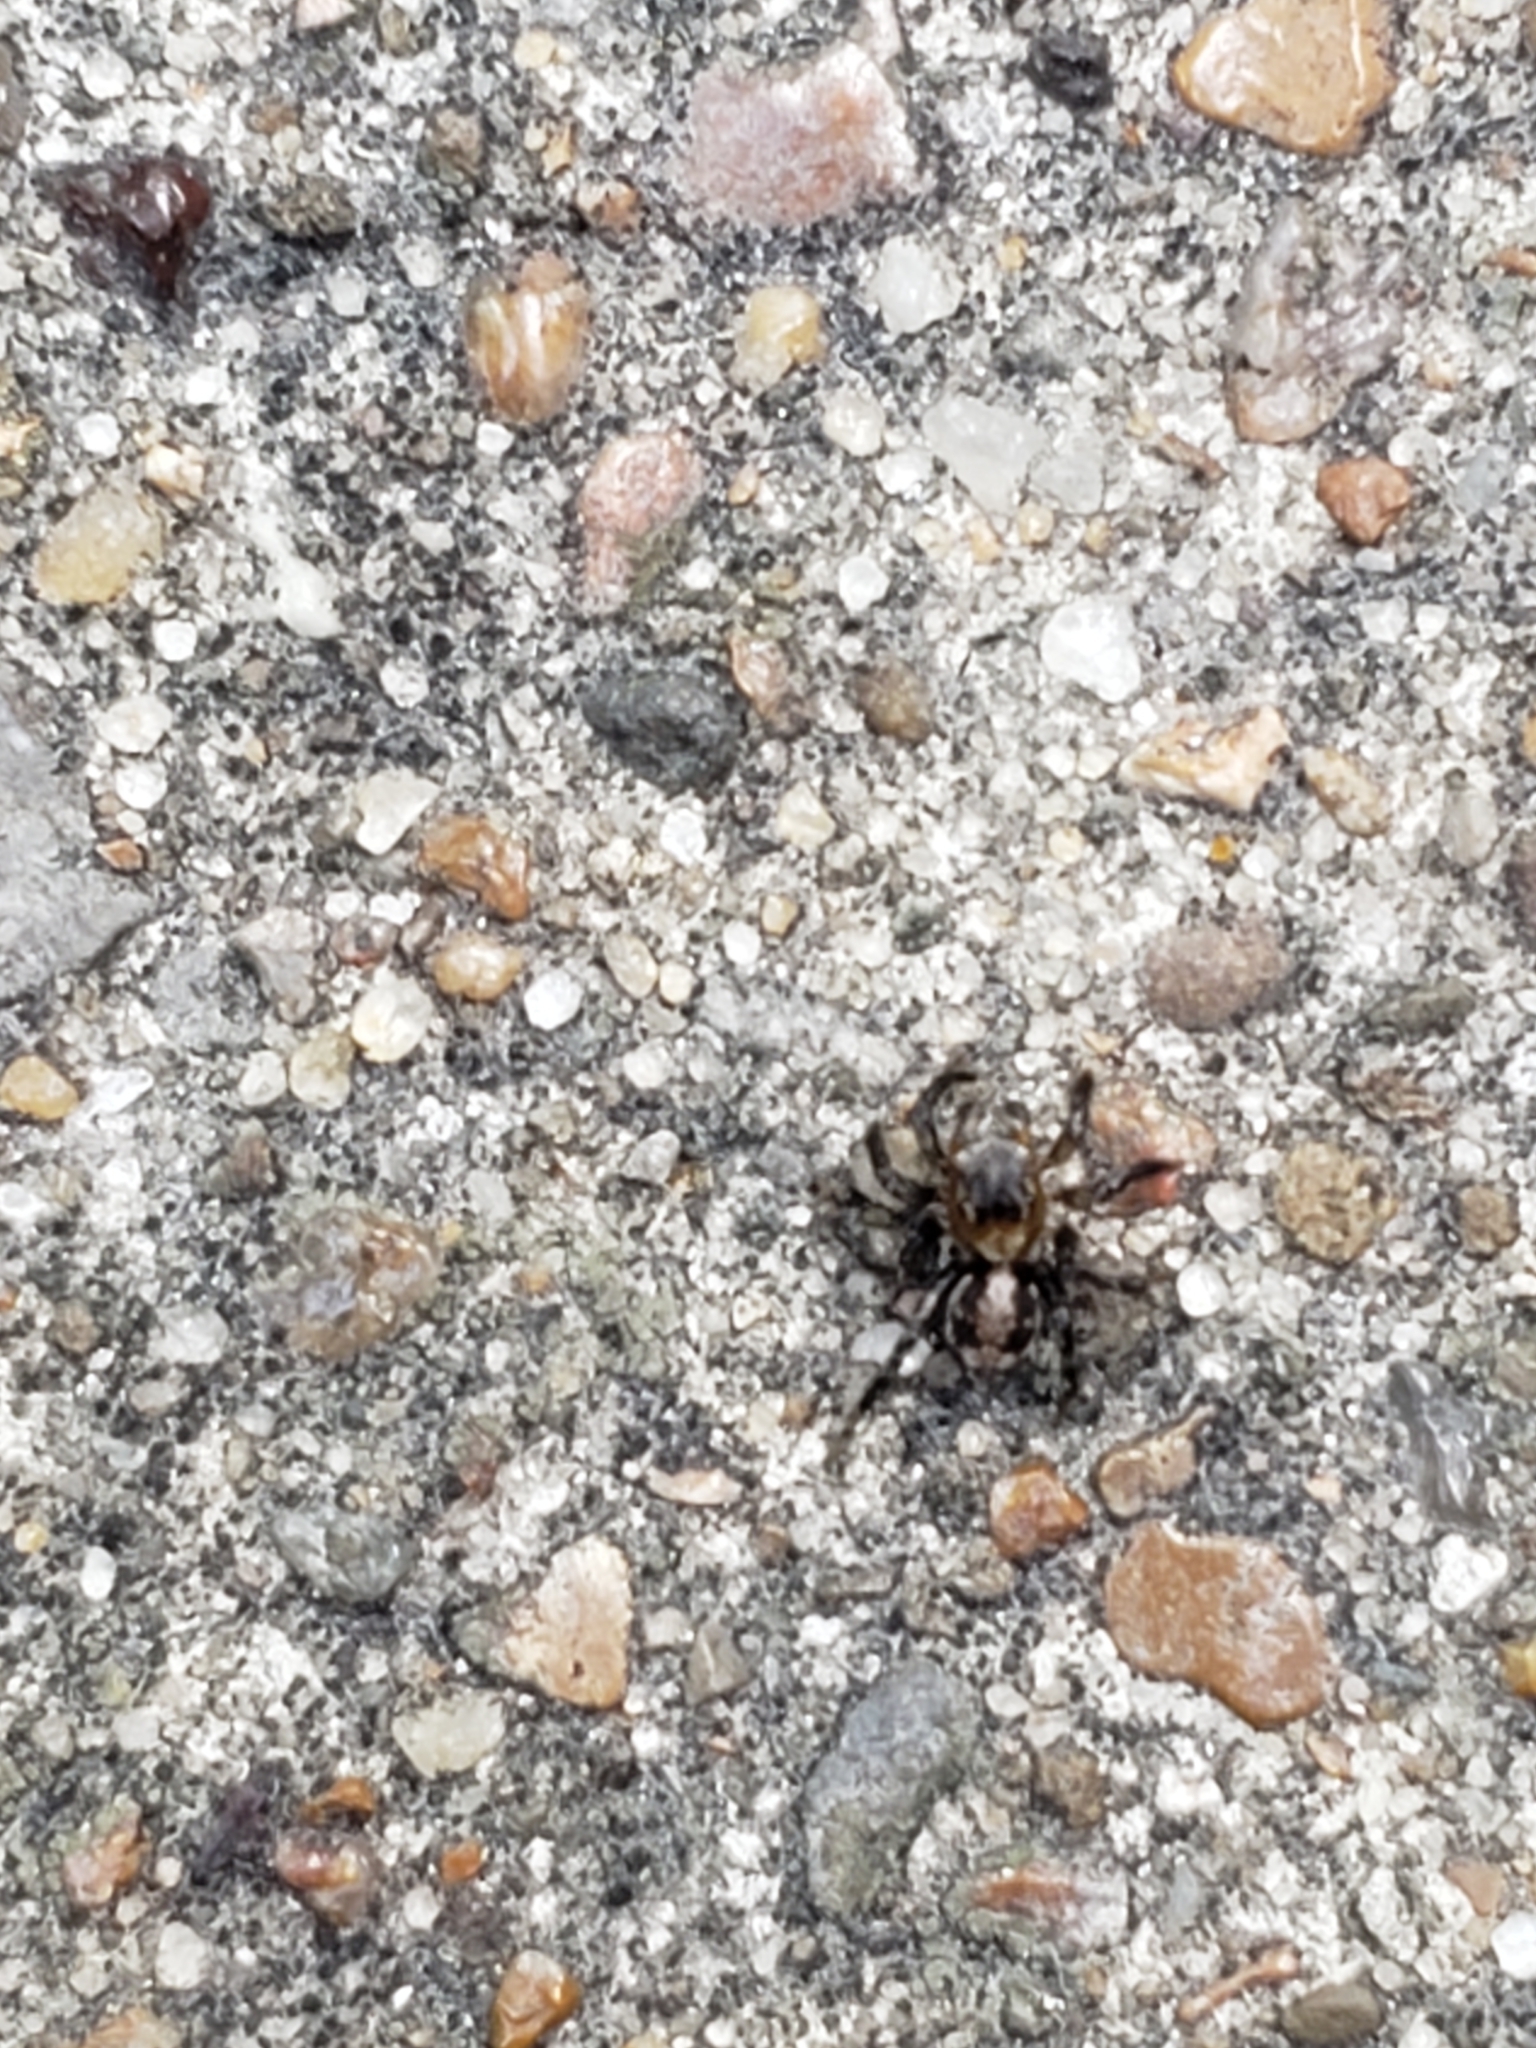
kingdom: Animalia
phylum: Arthropoda
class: Arachnida
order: Araneae
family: Salticidae
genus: Naphrys
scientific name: Naphrys pulex
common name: Flea jumping spider
